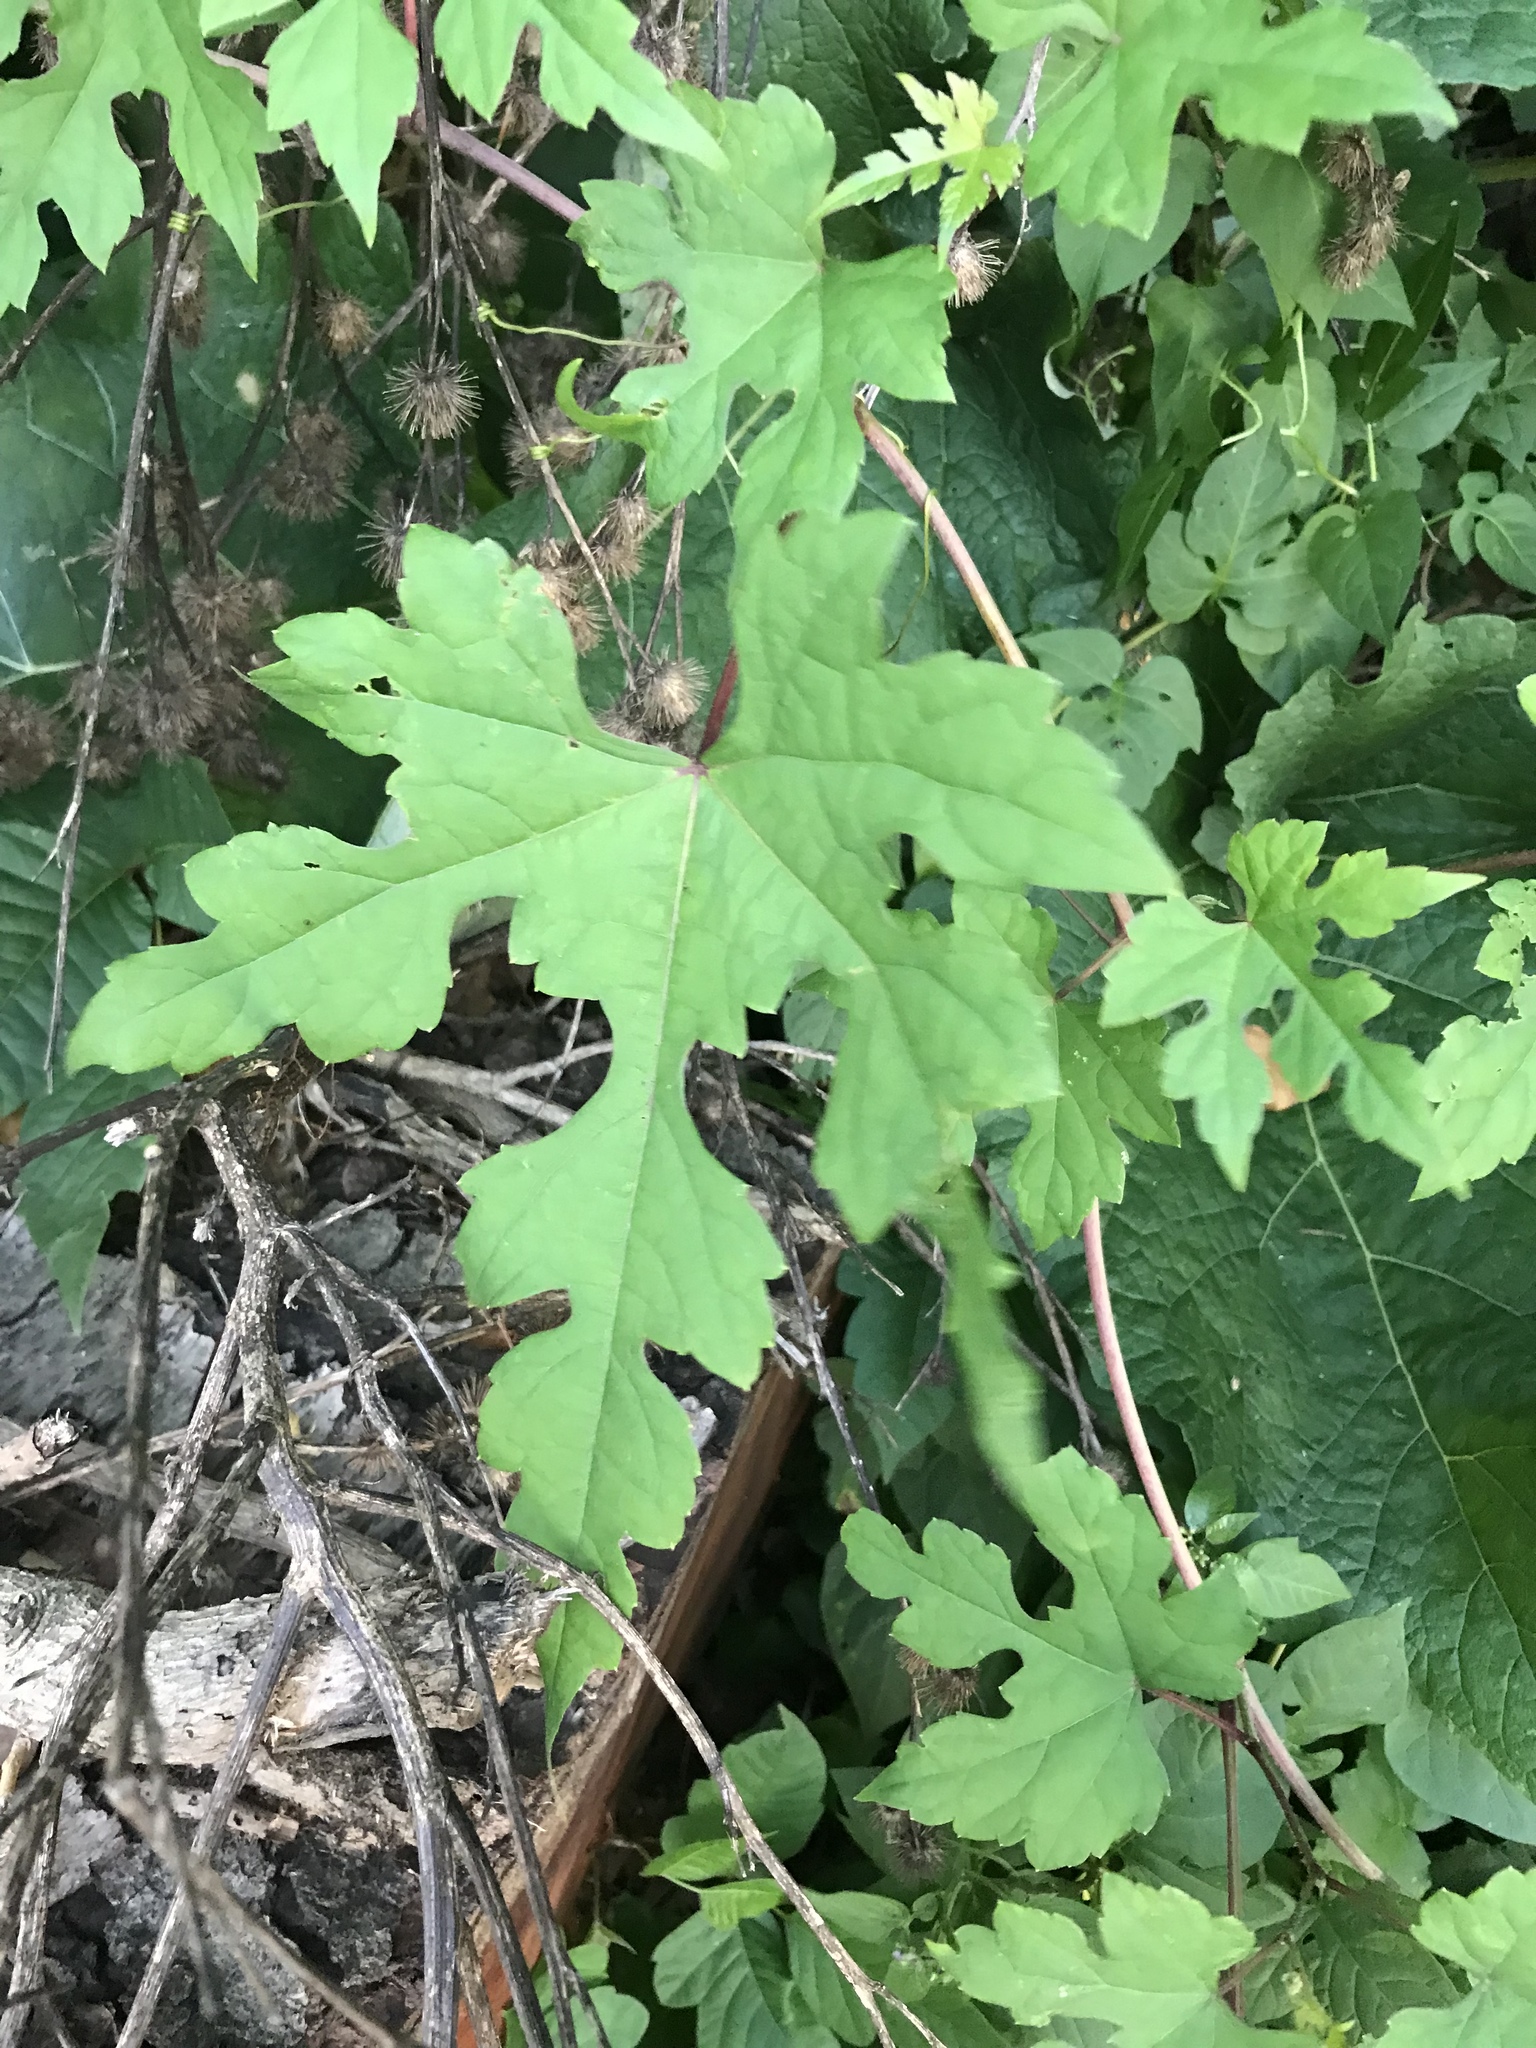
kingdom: Plantae
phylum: Tracheophyta
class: Magnoliopsida
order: Vitales
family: Vitaceae
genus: Ampelopsis
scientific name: Ampelopsis glandulosa
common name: Amur peppervine
